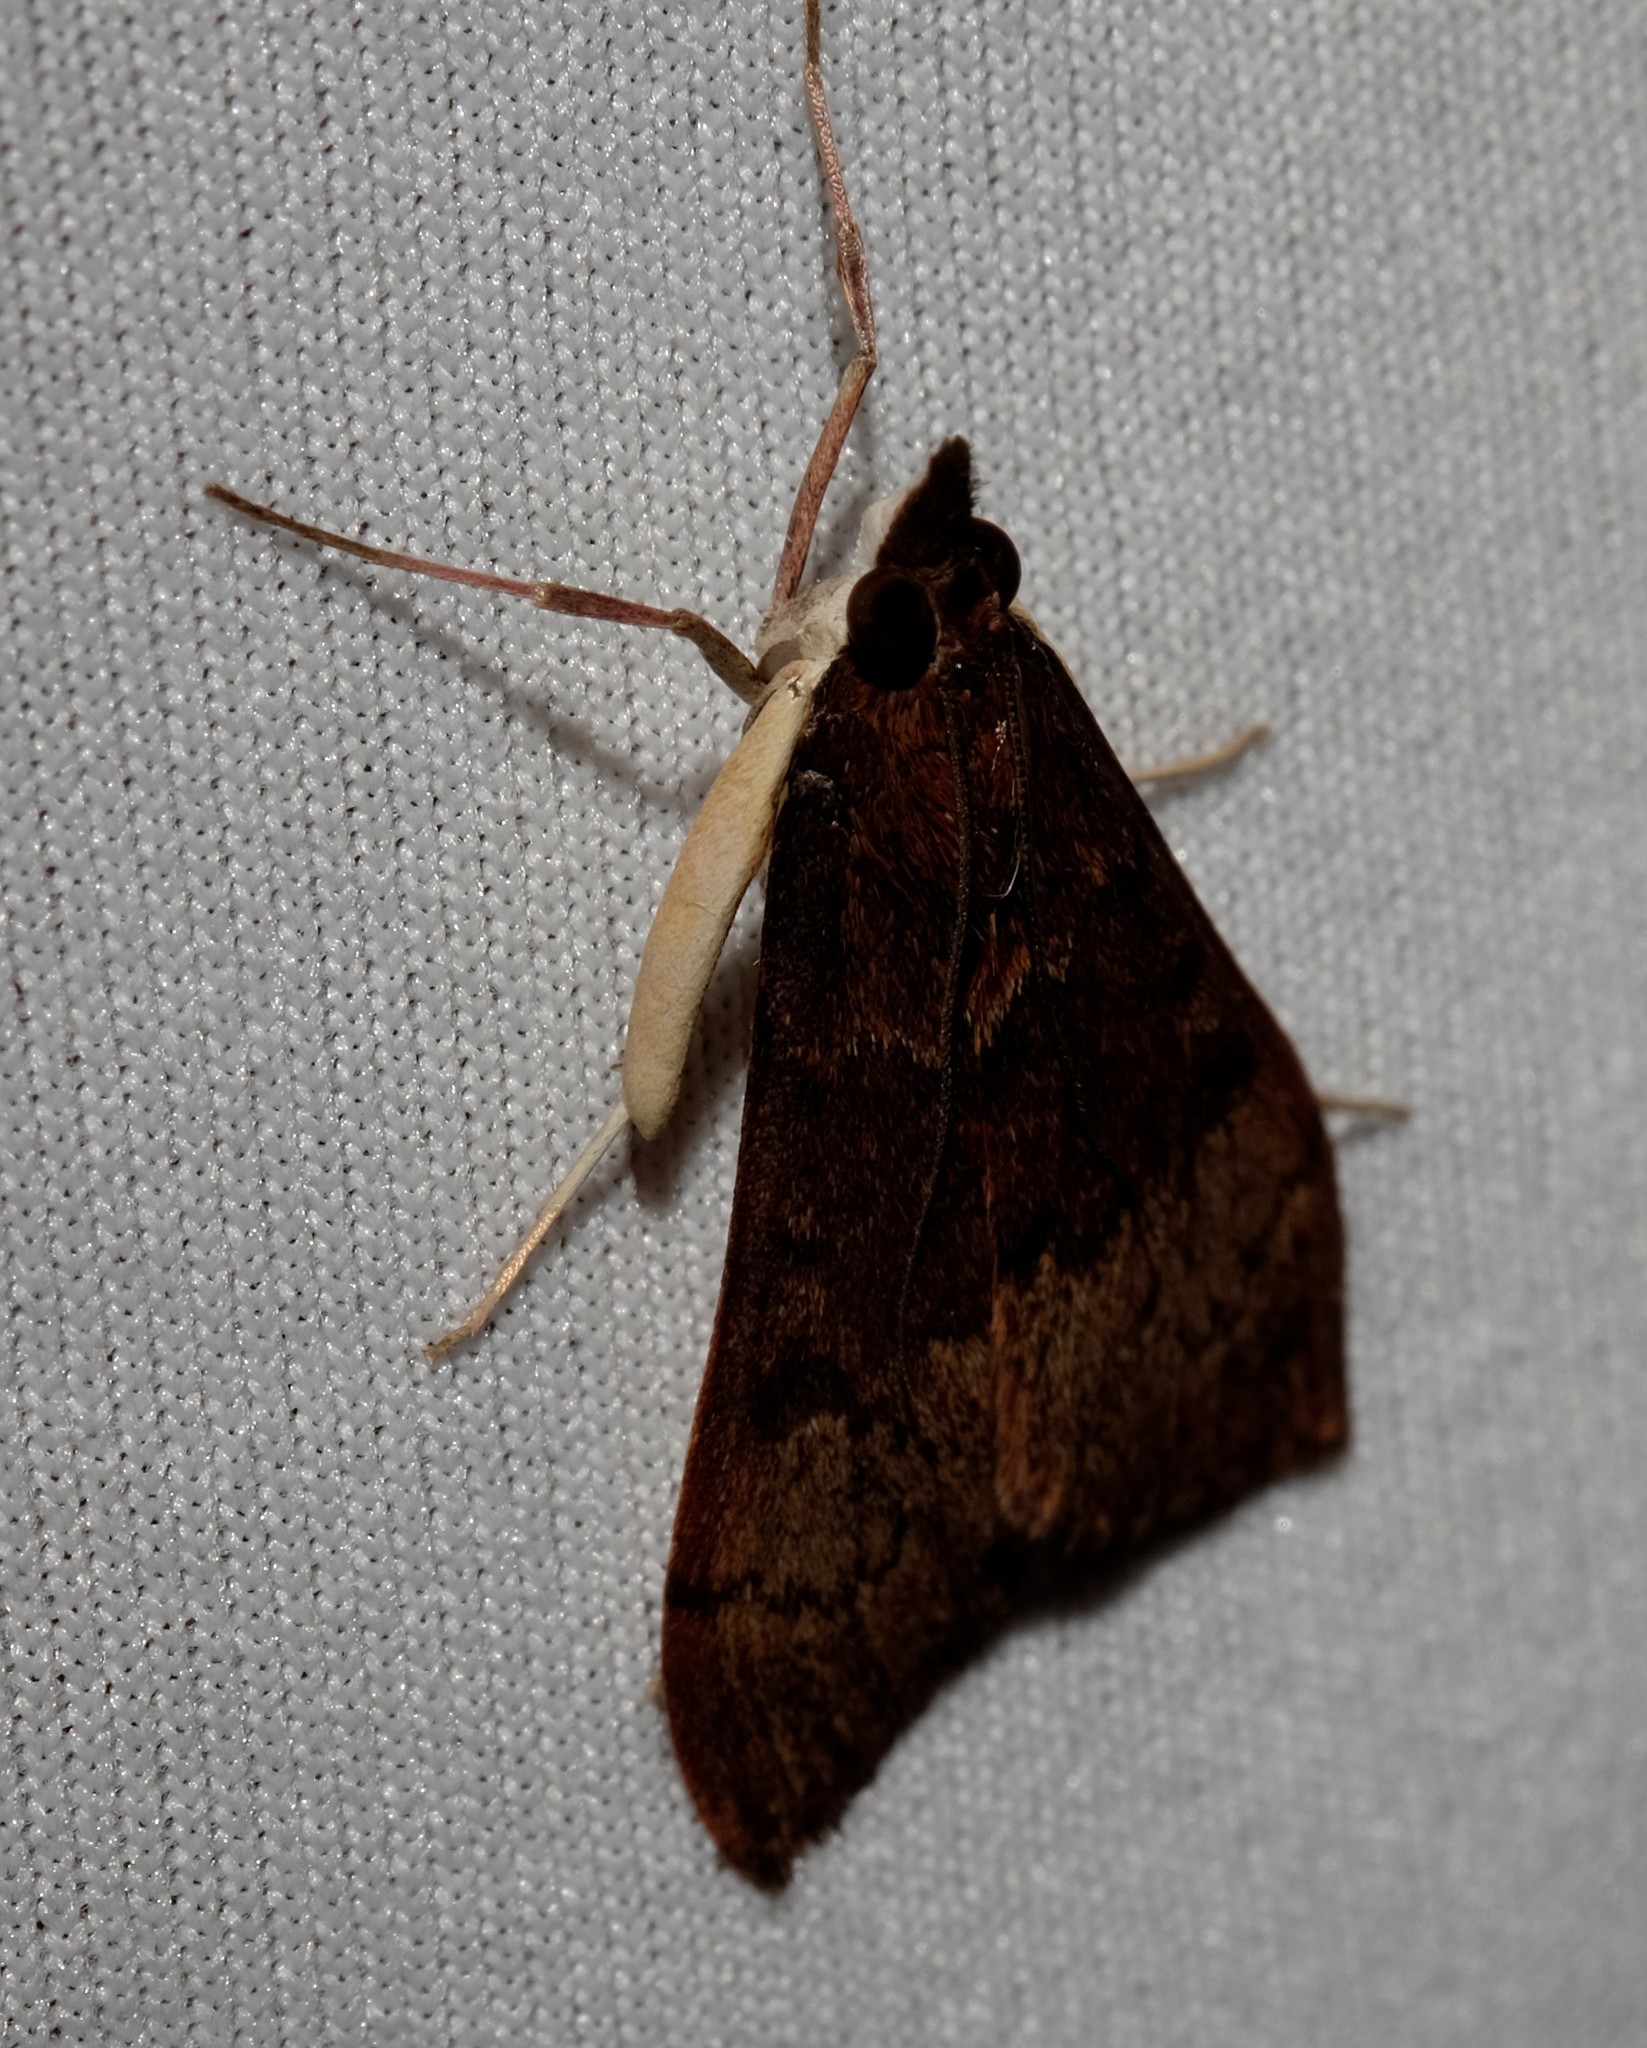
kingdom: Animalia
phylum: Arthropoda
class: Insecta
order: Lepidoptera
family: Crambidae
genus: Uresiphita
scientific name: Uresiphita ornithopteralis
